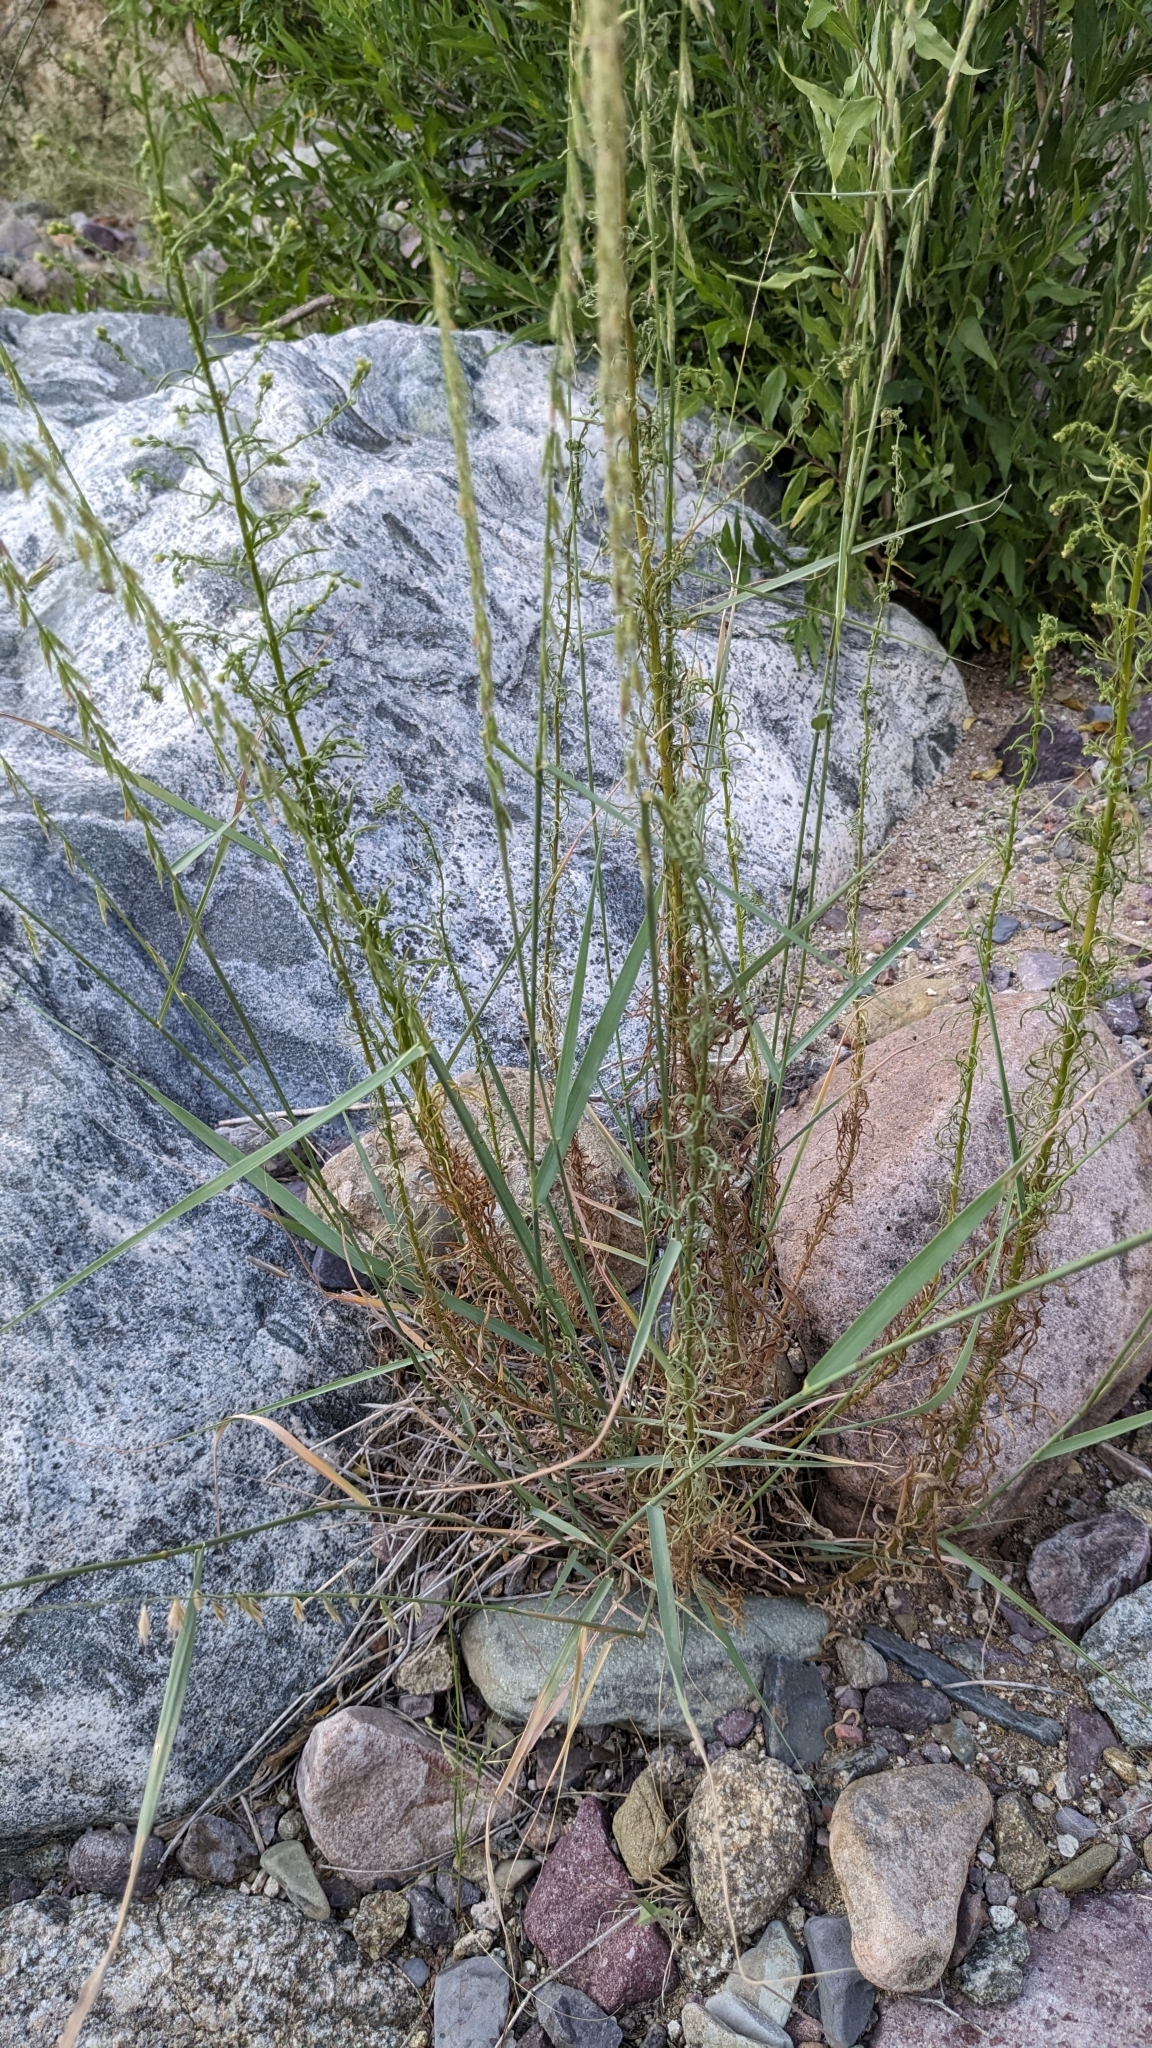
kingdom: Plantae
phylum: Tracheophyta
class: Liliopsida
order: Poales
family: Poaceae
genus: Bouteloua
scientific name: Bouteloua curtipendula
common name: Side-oats grama
